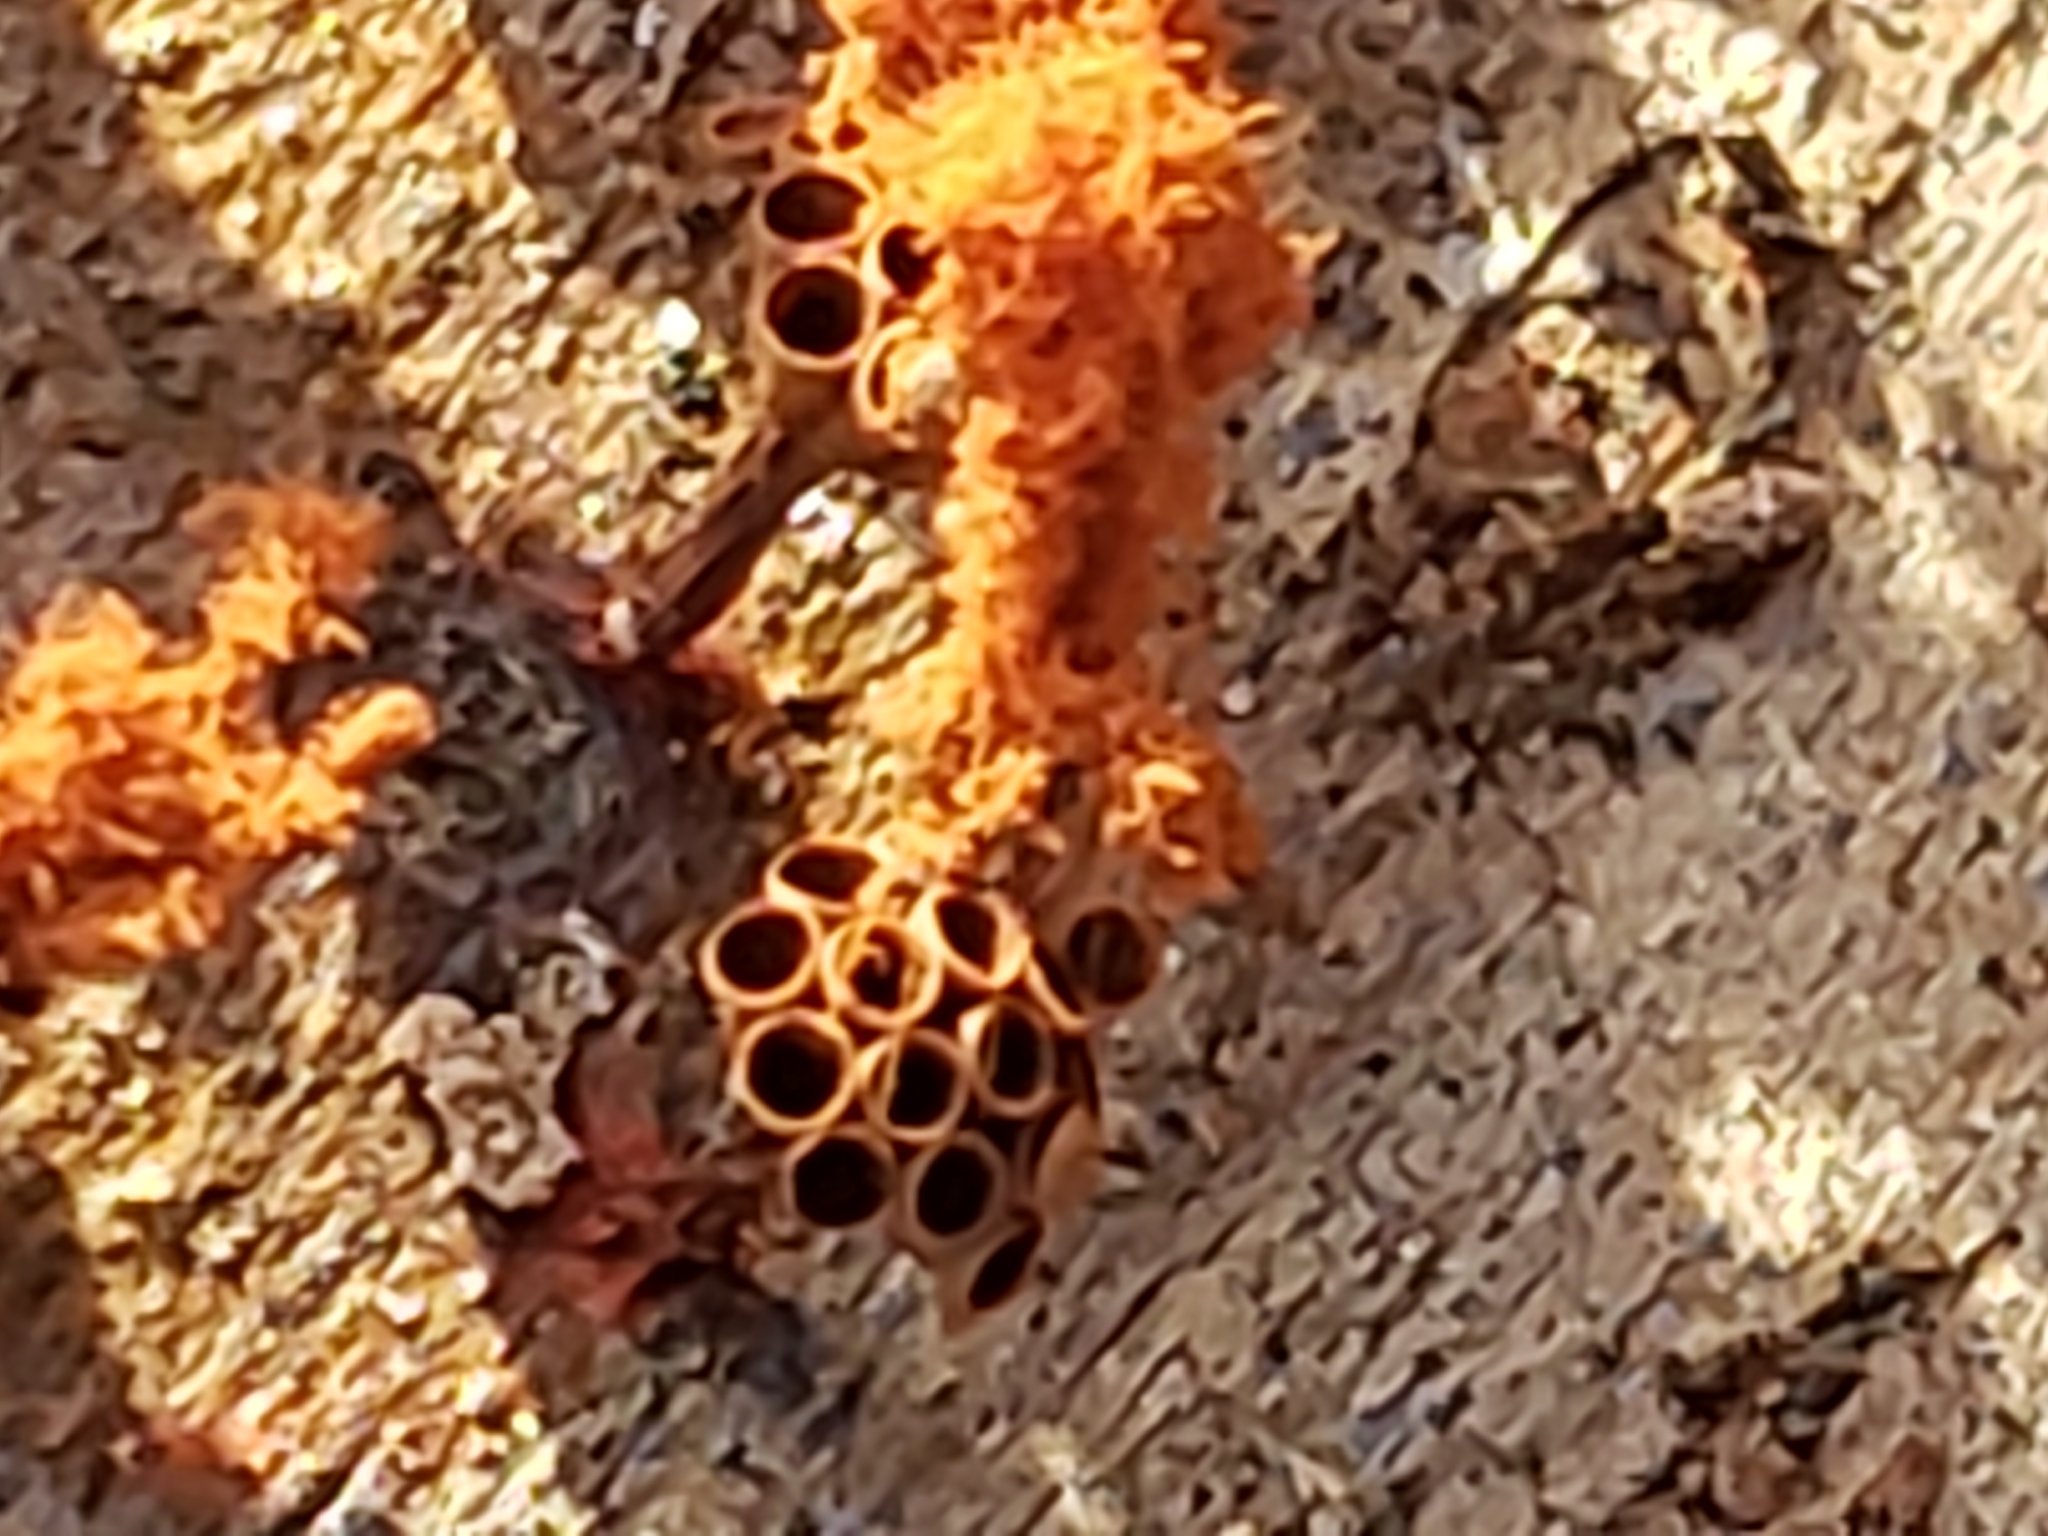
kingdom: Protozoa
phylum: Mycetozoa
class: Myxomycetes
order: Trichiales
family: Trichiaceae
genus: Metatrichia
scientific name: Metatrichia vesparia
